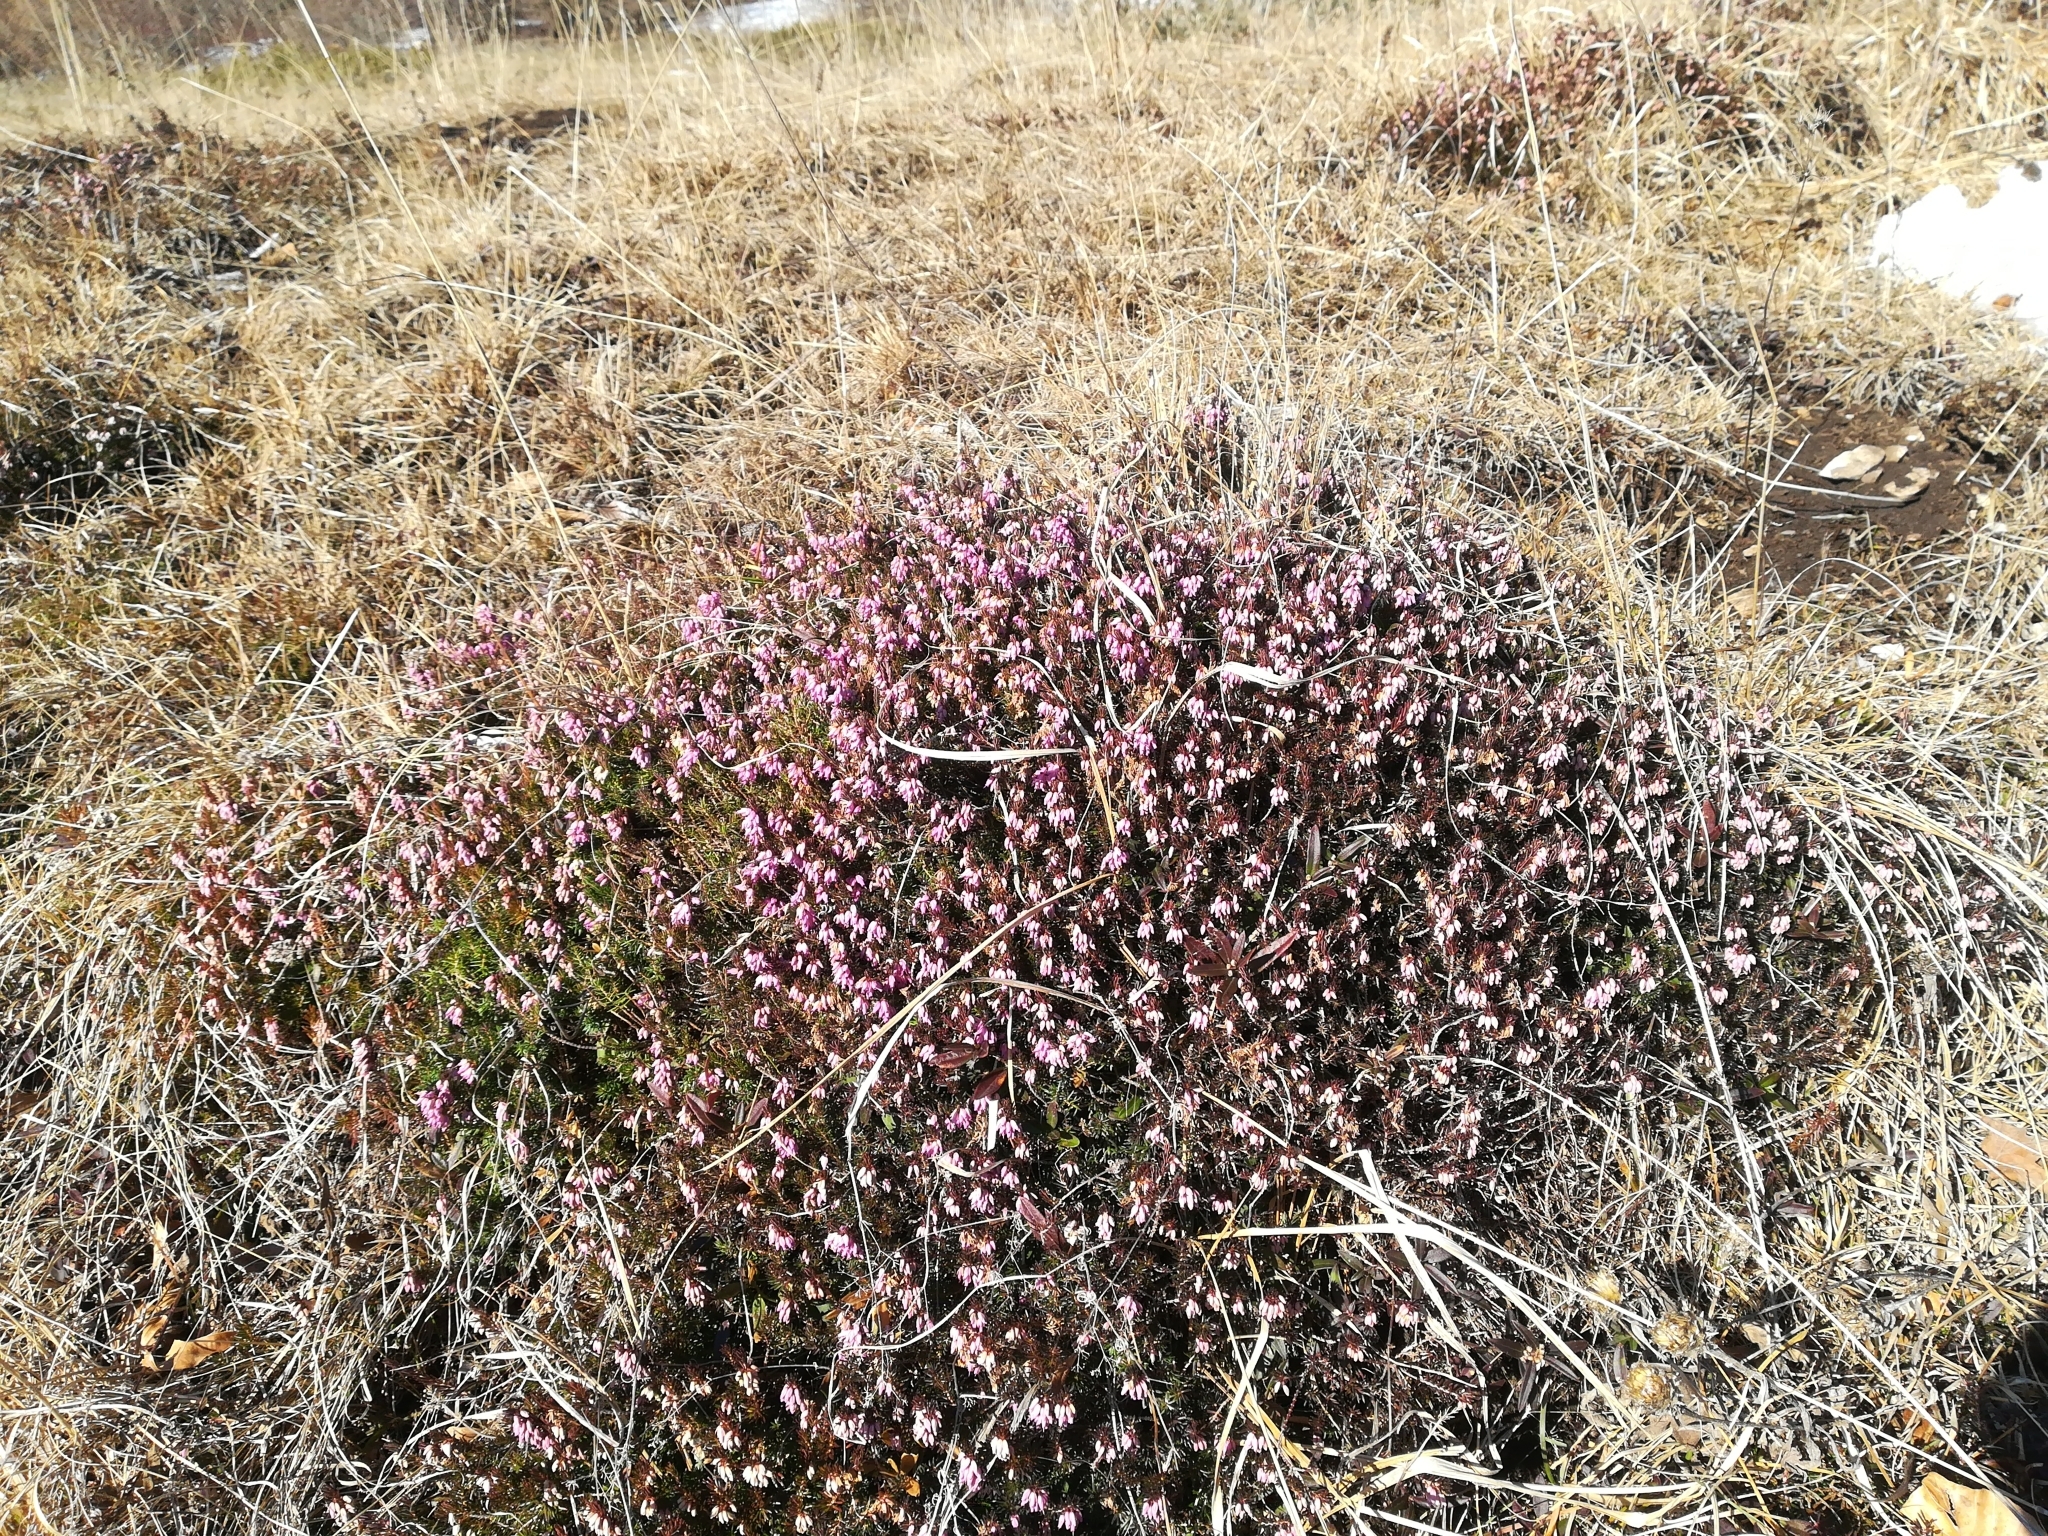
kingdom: Plantae
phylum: Tracheophyta
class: Magnoliopsida
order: Ericales
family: Ericaceae
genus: Erica
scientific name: Erica carnea
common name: Winter heath
